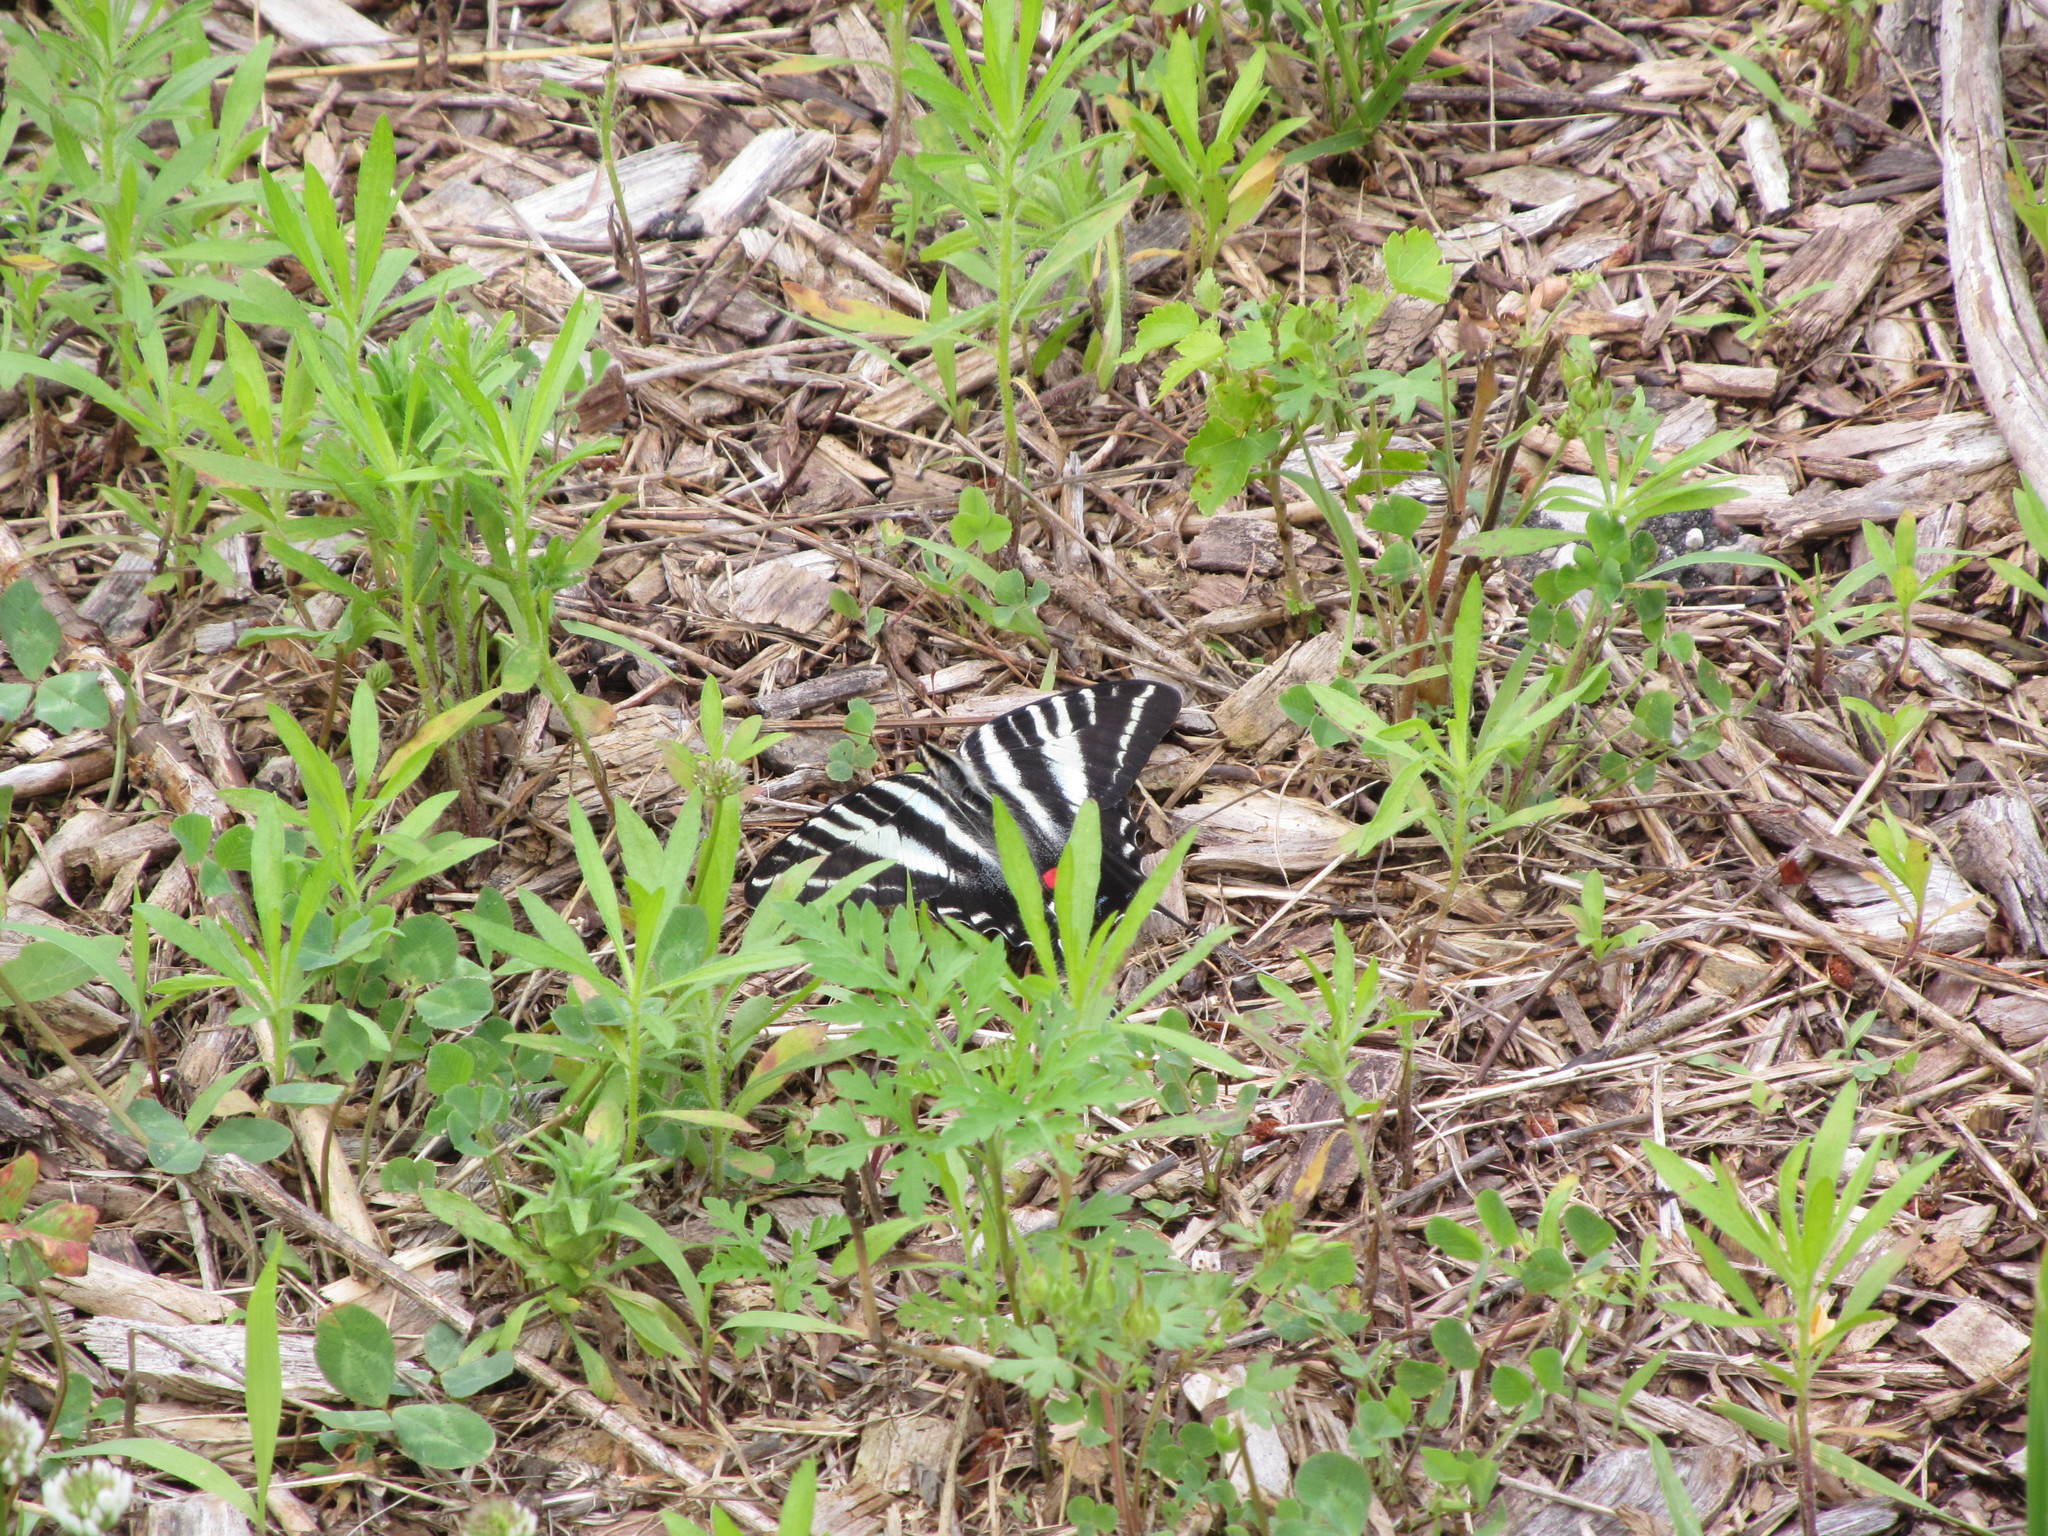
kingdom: Animalia
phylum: Arthropoda
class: Insecta
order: Lepidoptera
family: Papilionidae
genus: Protographium
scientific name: Protographium marcellus
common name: Zebra swallowtail
